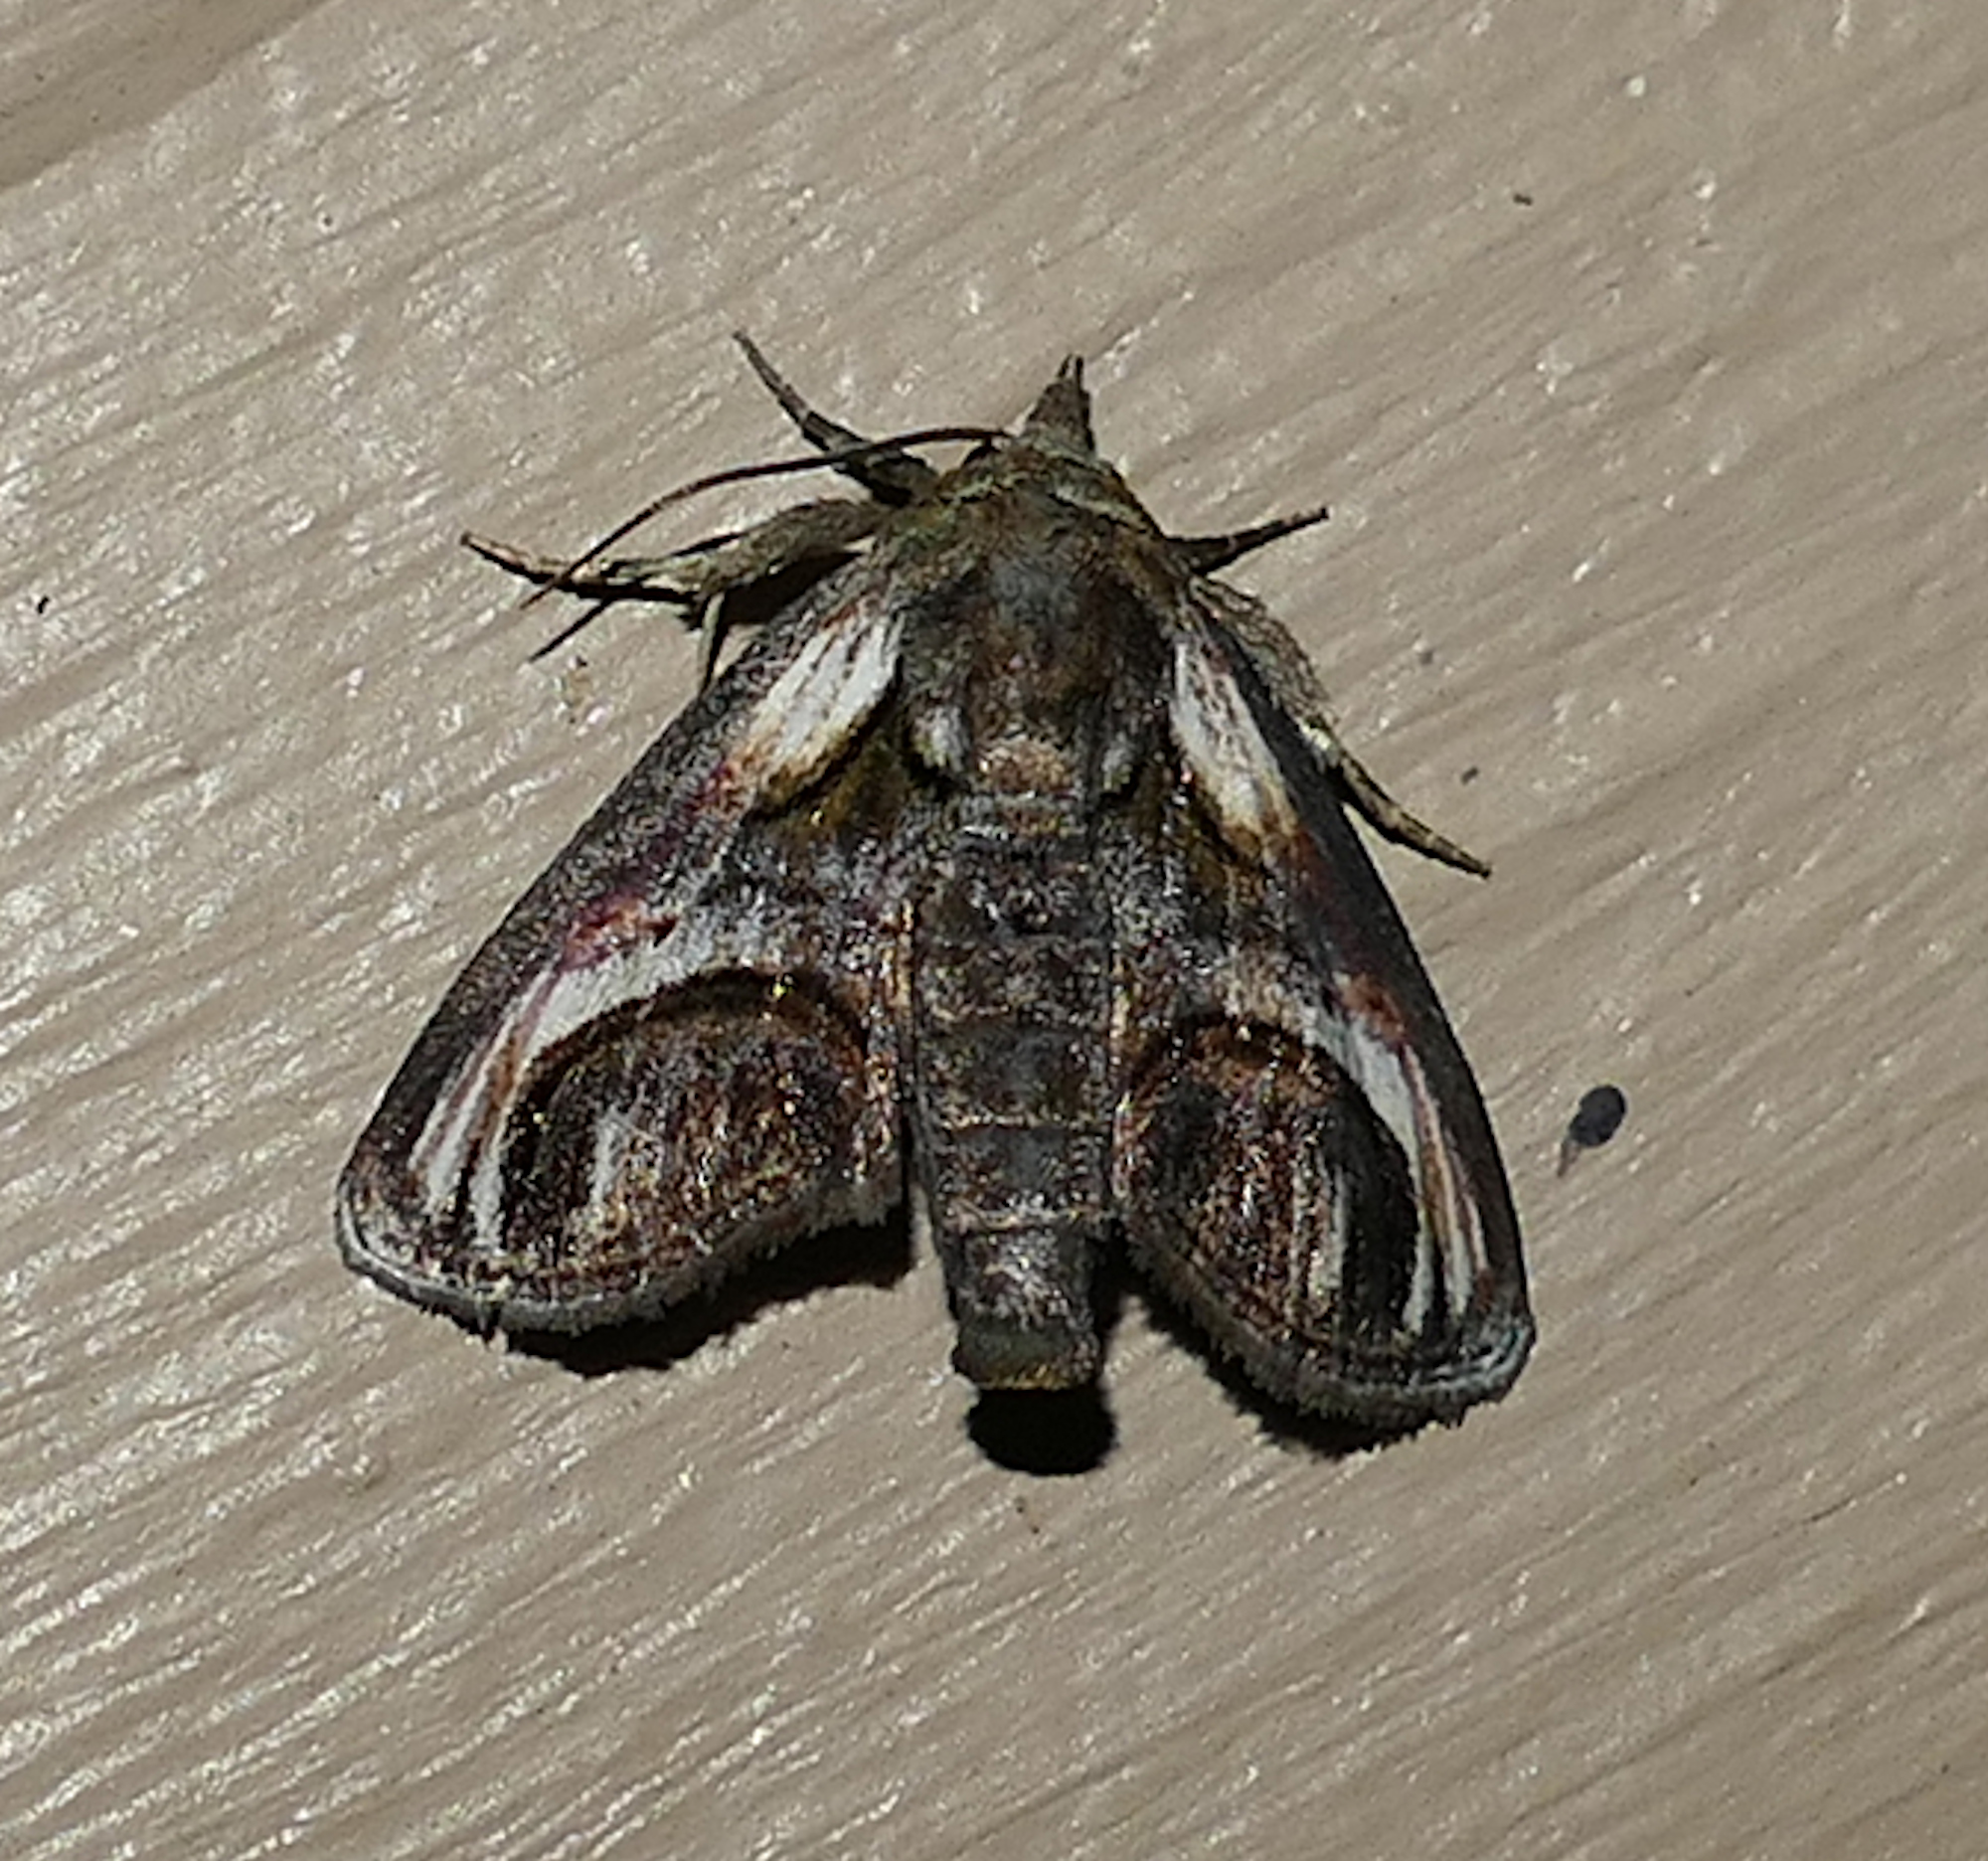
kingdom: Animalia
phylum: Arthropoda
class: Insecta
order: Lepidoptera
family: Euteliidae
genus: Paectes
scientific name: Paectes oculatrix
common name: Eyed paectes moth
